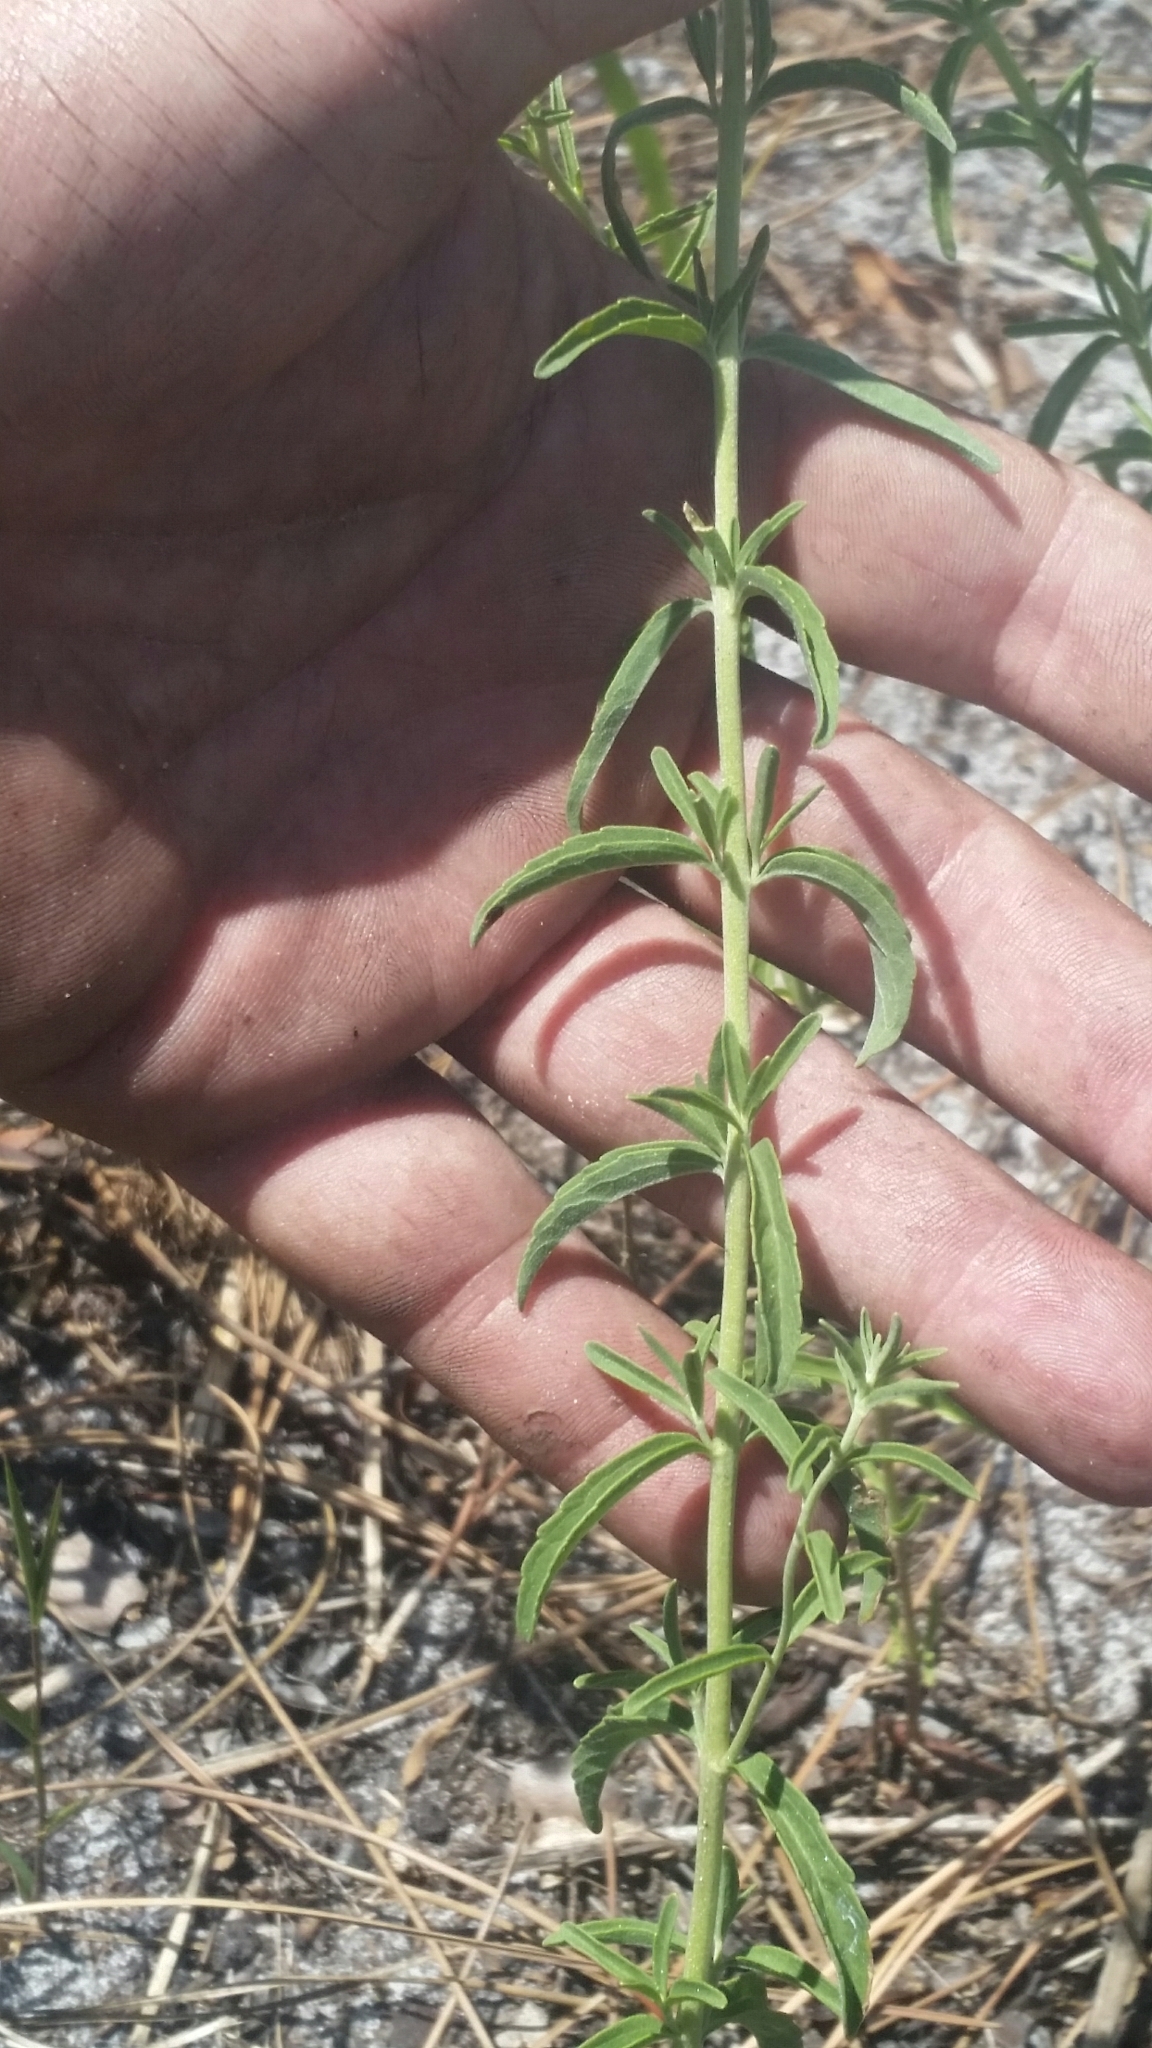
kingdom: Plantae
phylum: Tracheophyta
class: Magnoliopsida
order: Asterales
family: Asteraceae
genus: Eupatorium
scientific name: Eupatorium mohrii
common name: Mohr's thoroughwort
